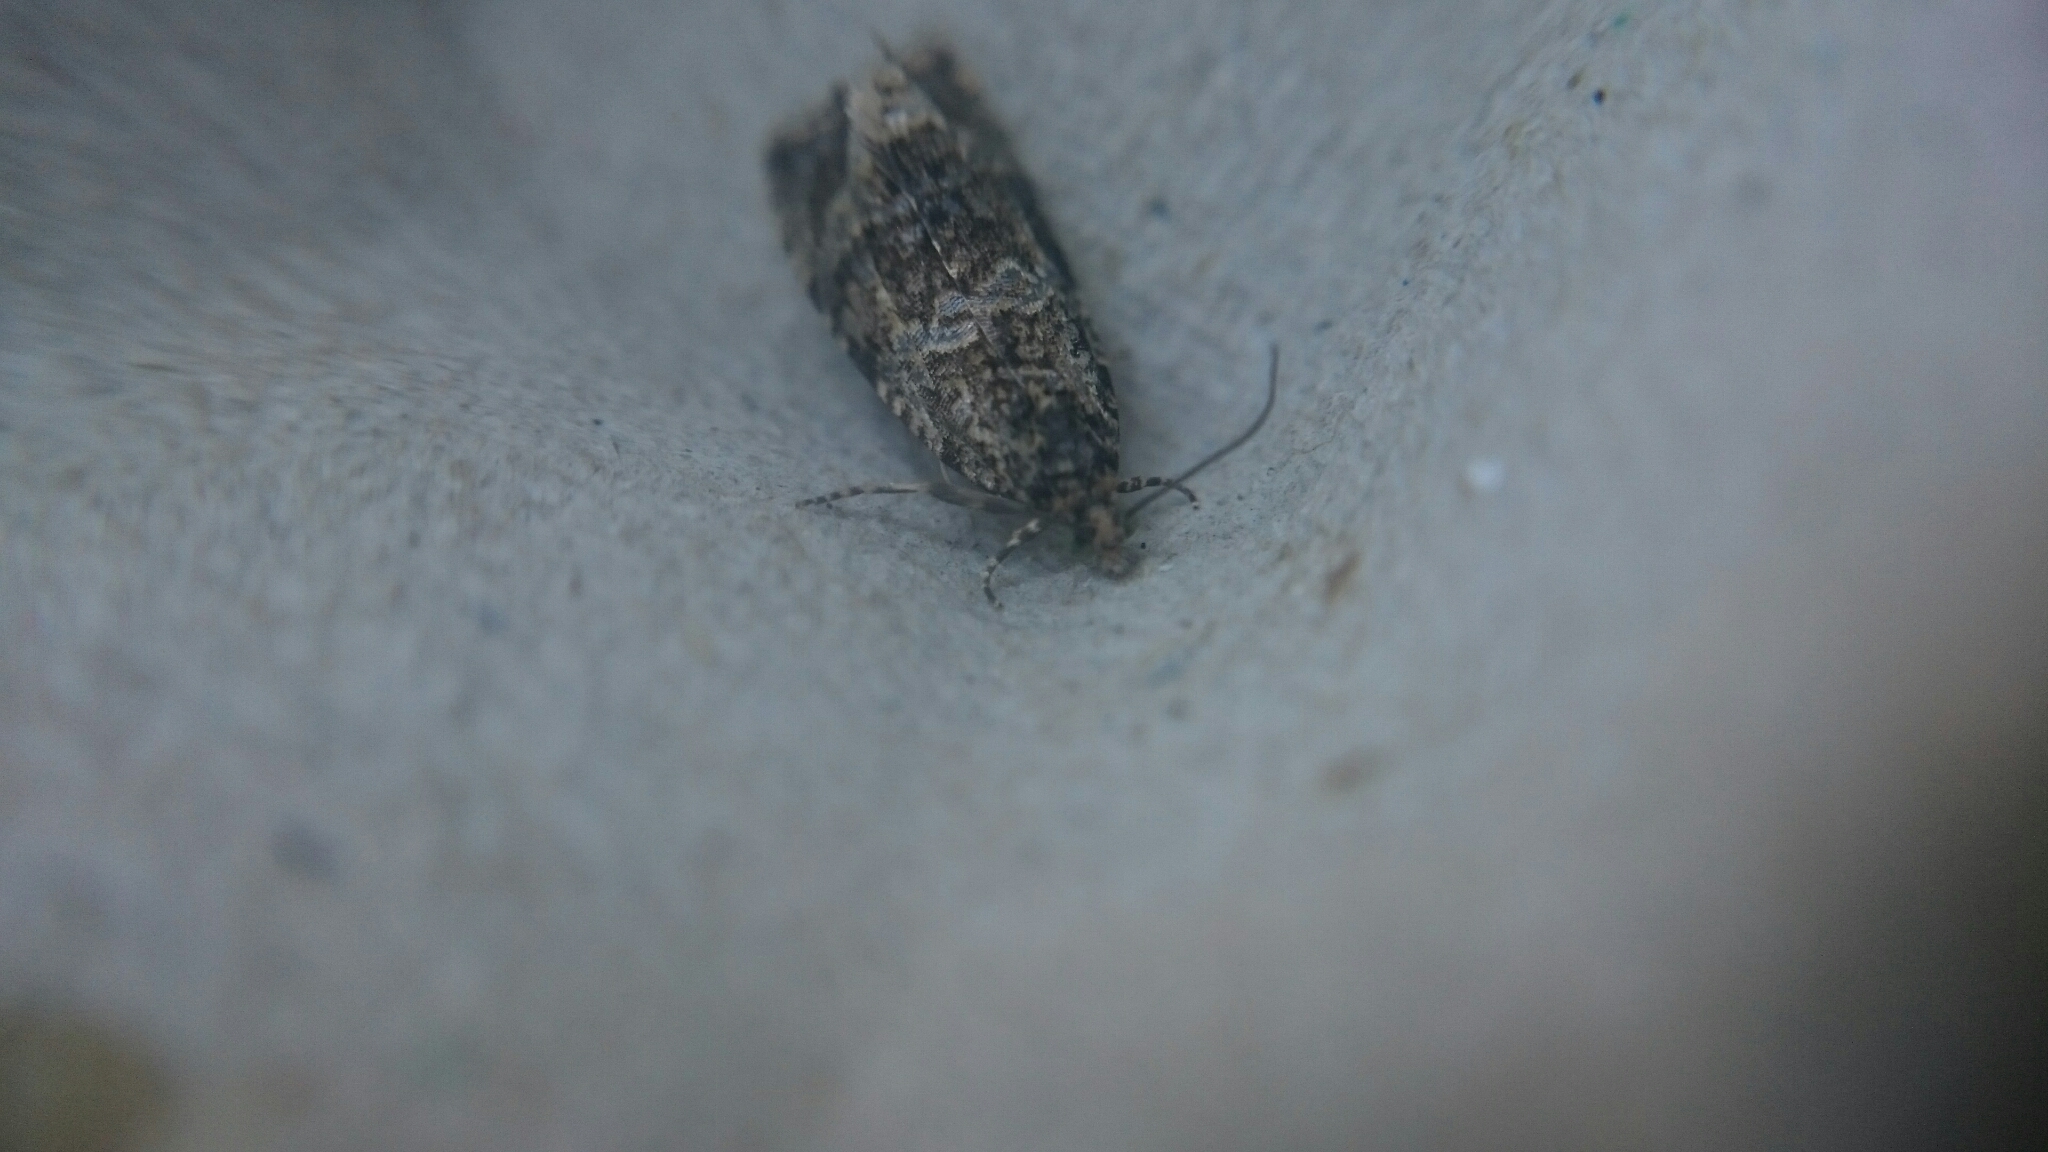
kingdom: Animalia
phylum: Arthropoda
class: Insecta
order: Lepidoptera
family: Tortricidae
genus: Syricoris
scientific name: Syricoris lacunana
